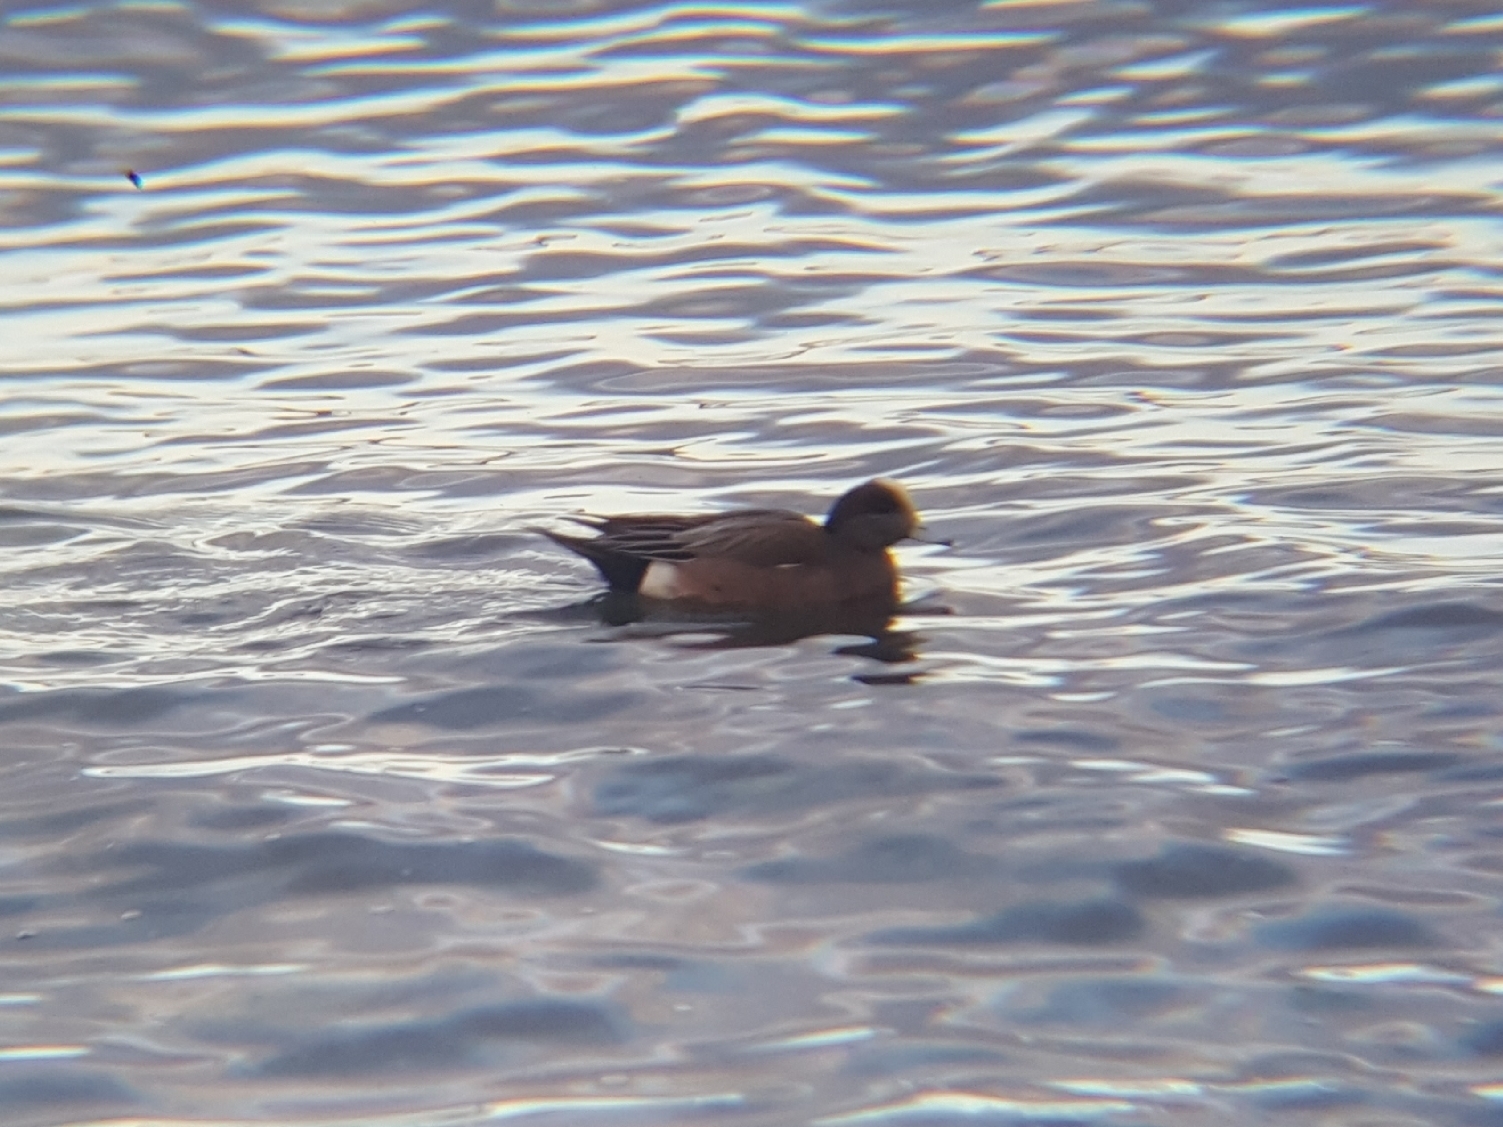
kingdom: Animalia
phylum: Chordata
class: Aves
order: Anseriformes
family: Anatidae
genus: Mareca
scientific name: Mareca americana
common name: American wigeon
